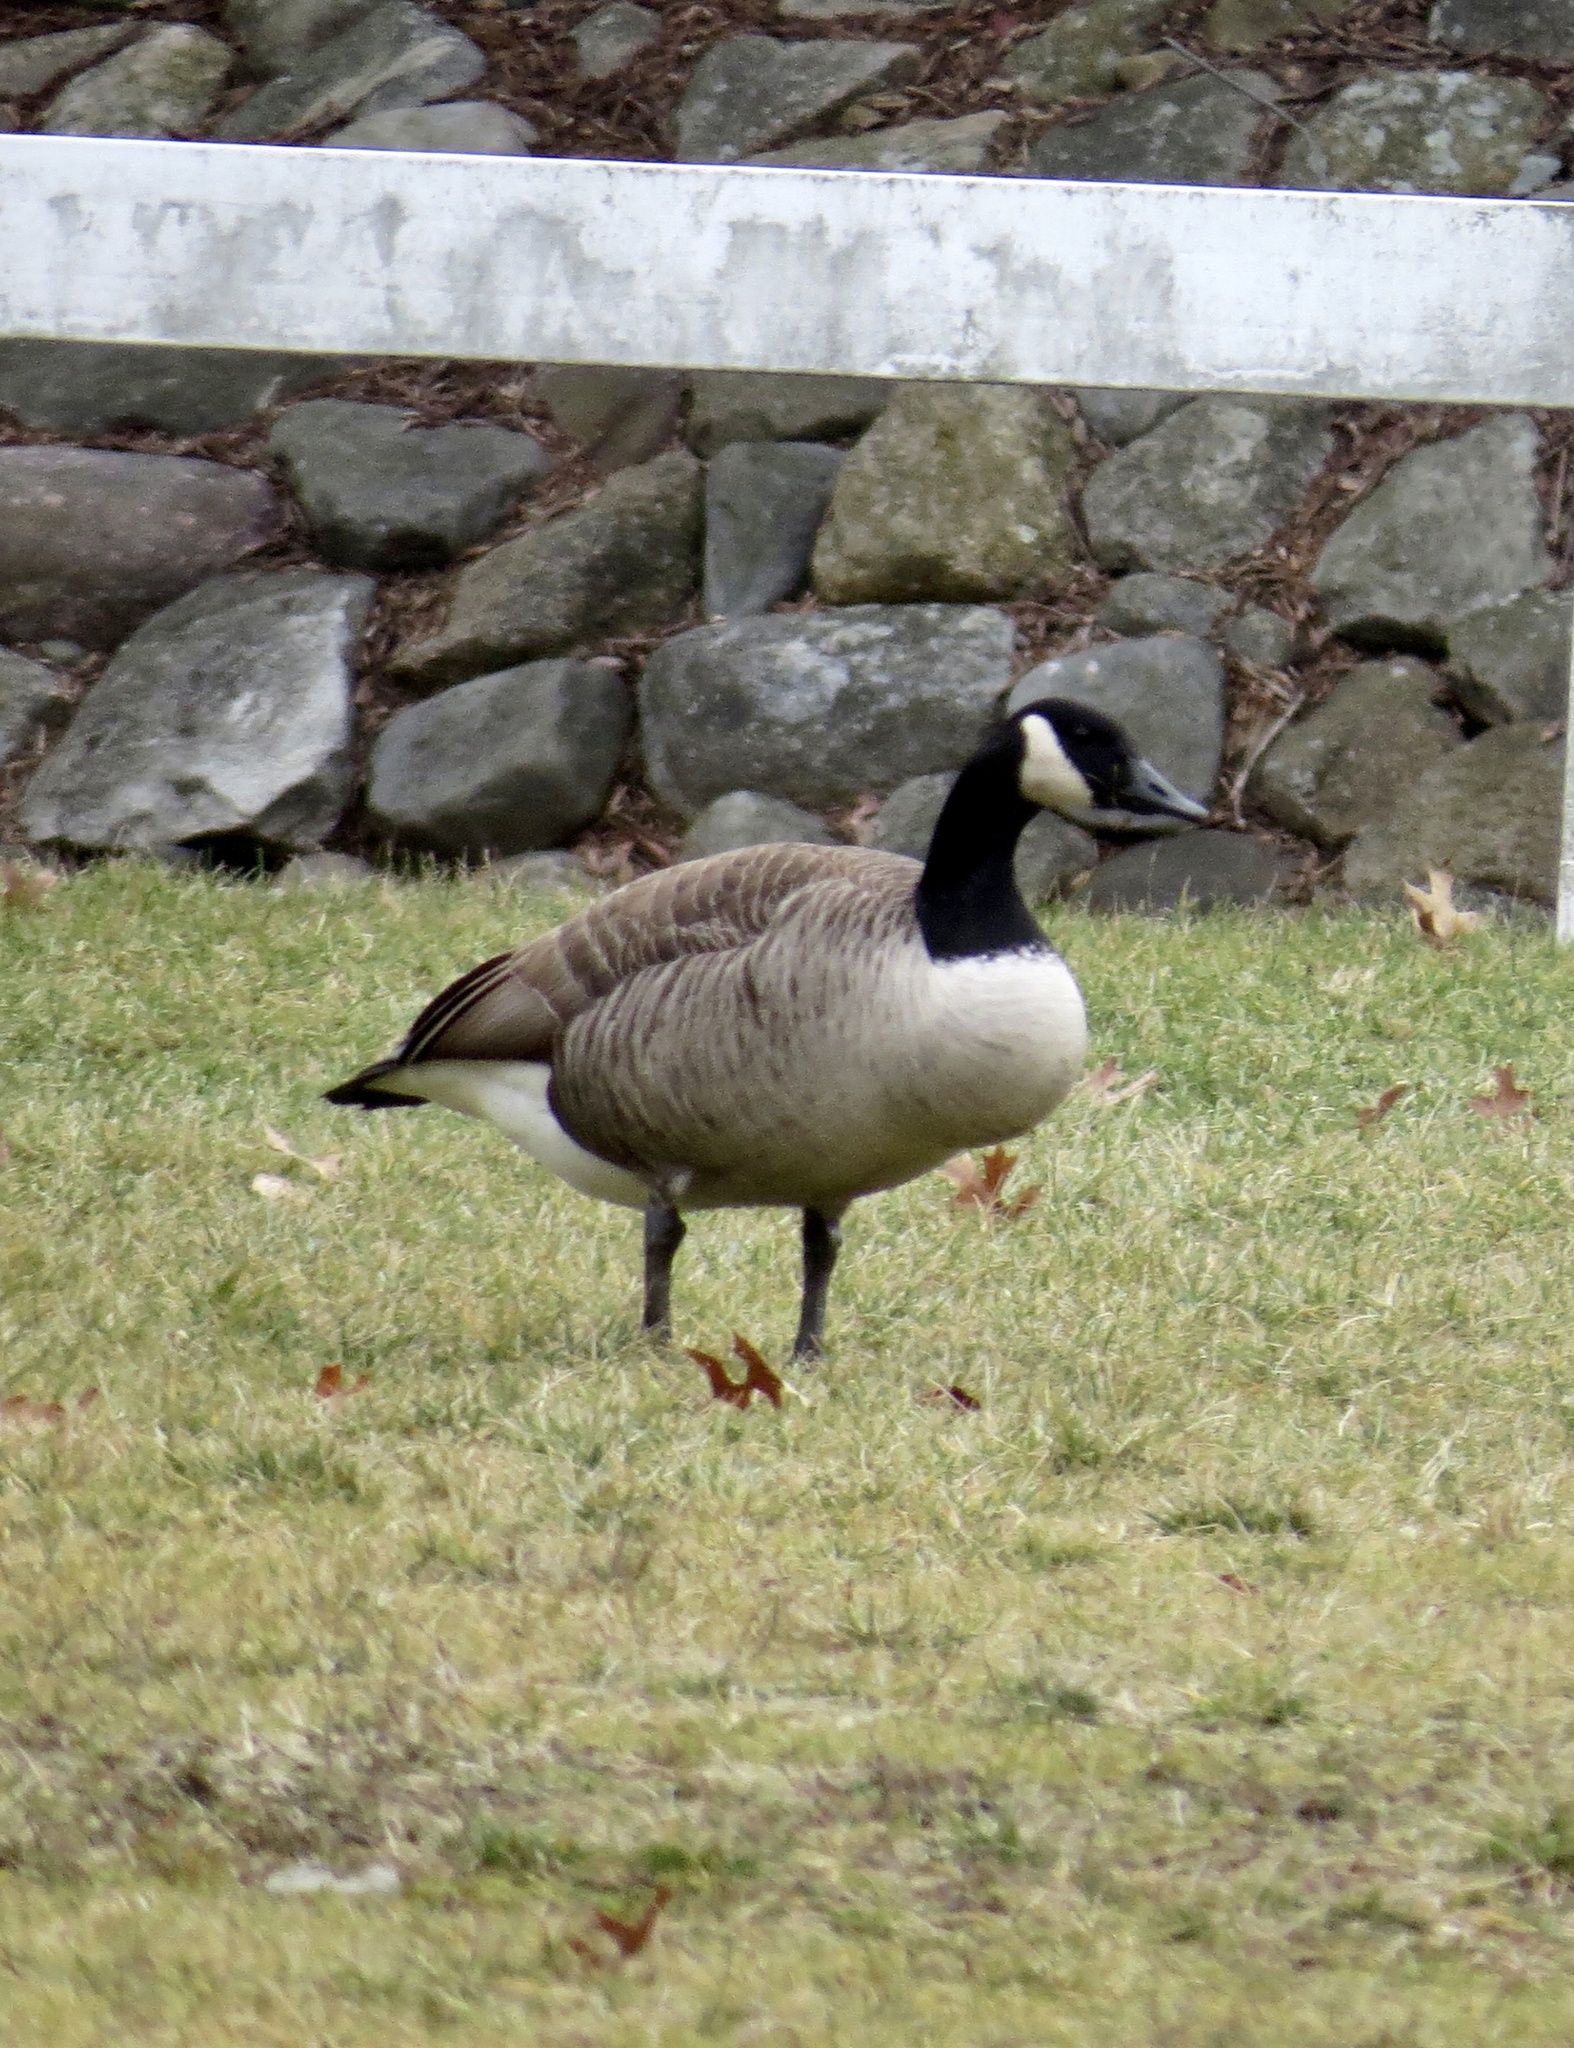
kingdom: Animalia
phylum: Chordata
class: Aves
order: Anseriformes
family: Anatidae
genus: Branta
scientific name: Branta canadensis
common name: Canada goose
